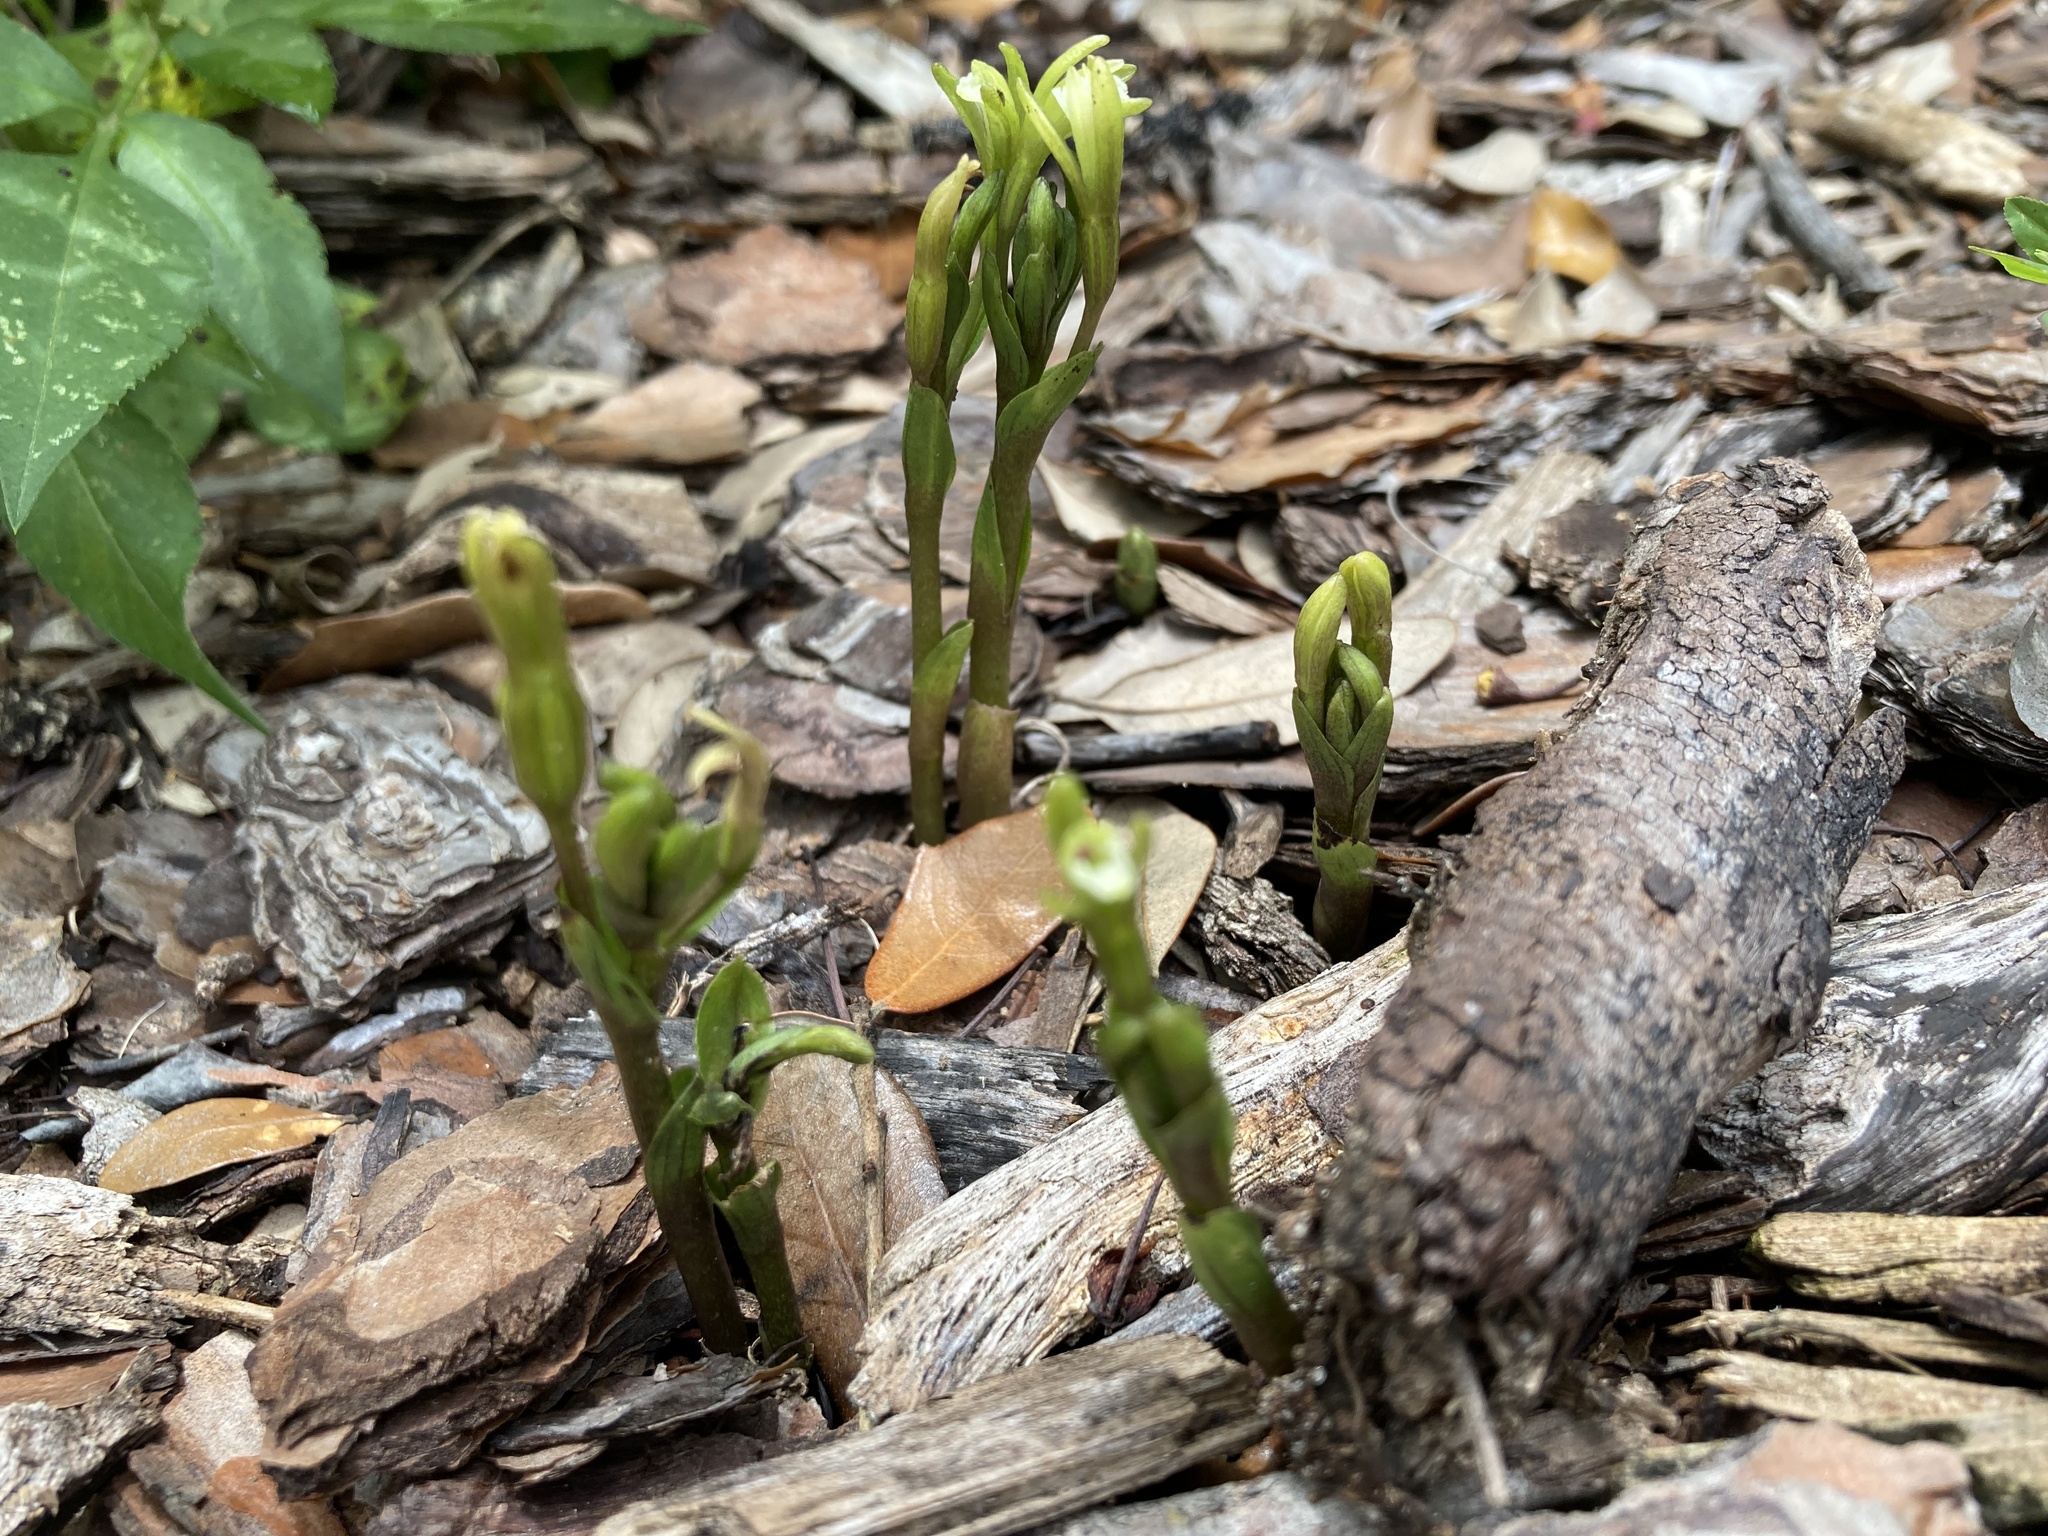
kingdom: Plantae
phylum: Tracheophyta
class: Liliopsida
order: Asparagales
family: Orchidaceae
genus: Triphora
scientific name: Triphora gentianoides
